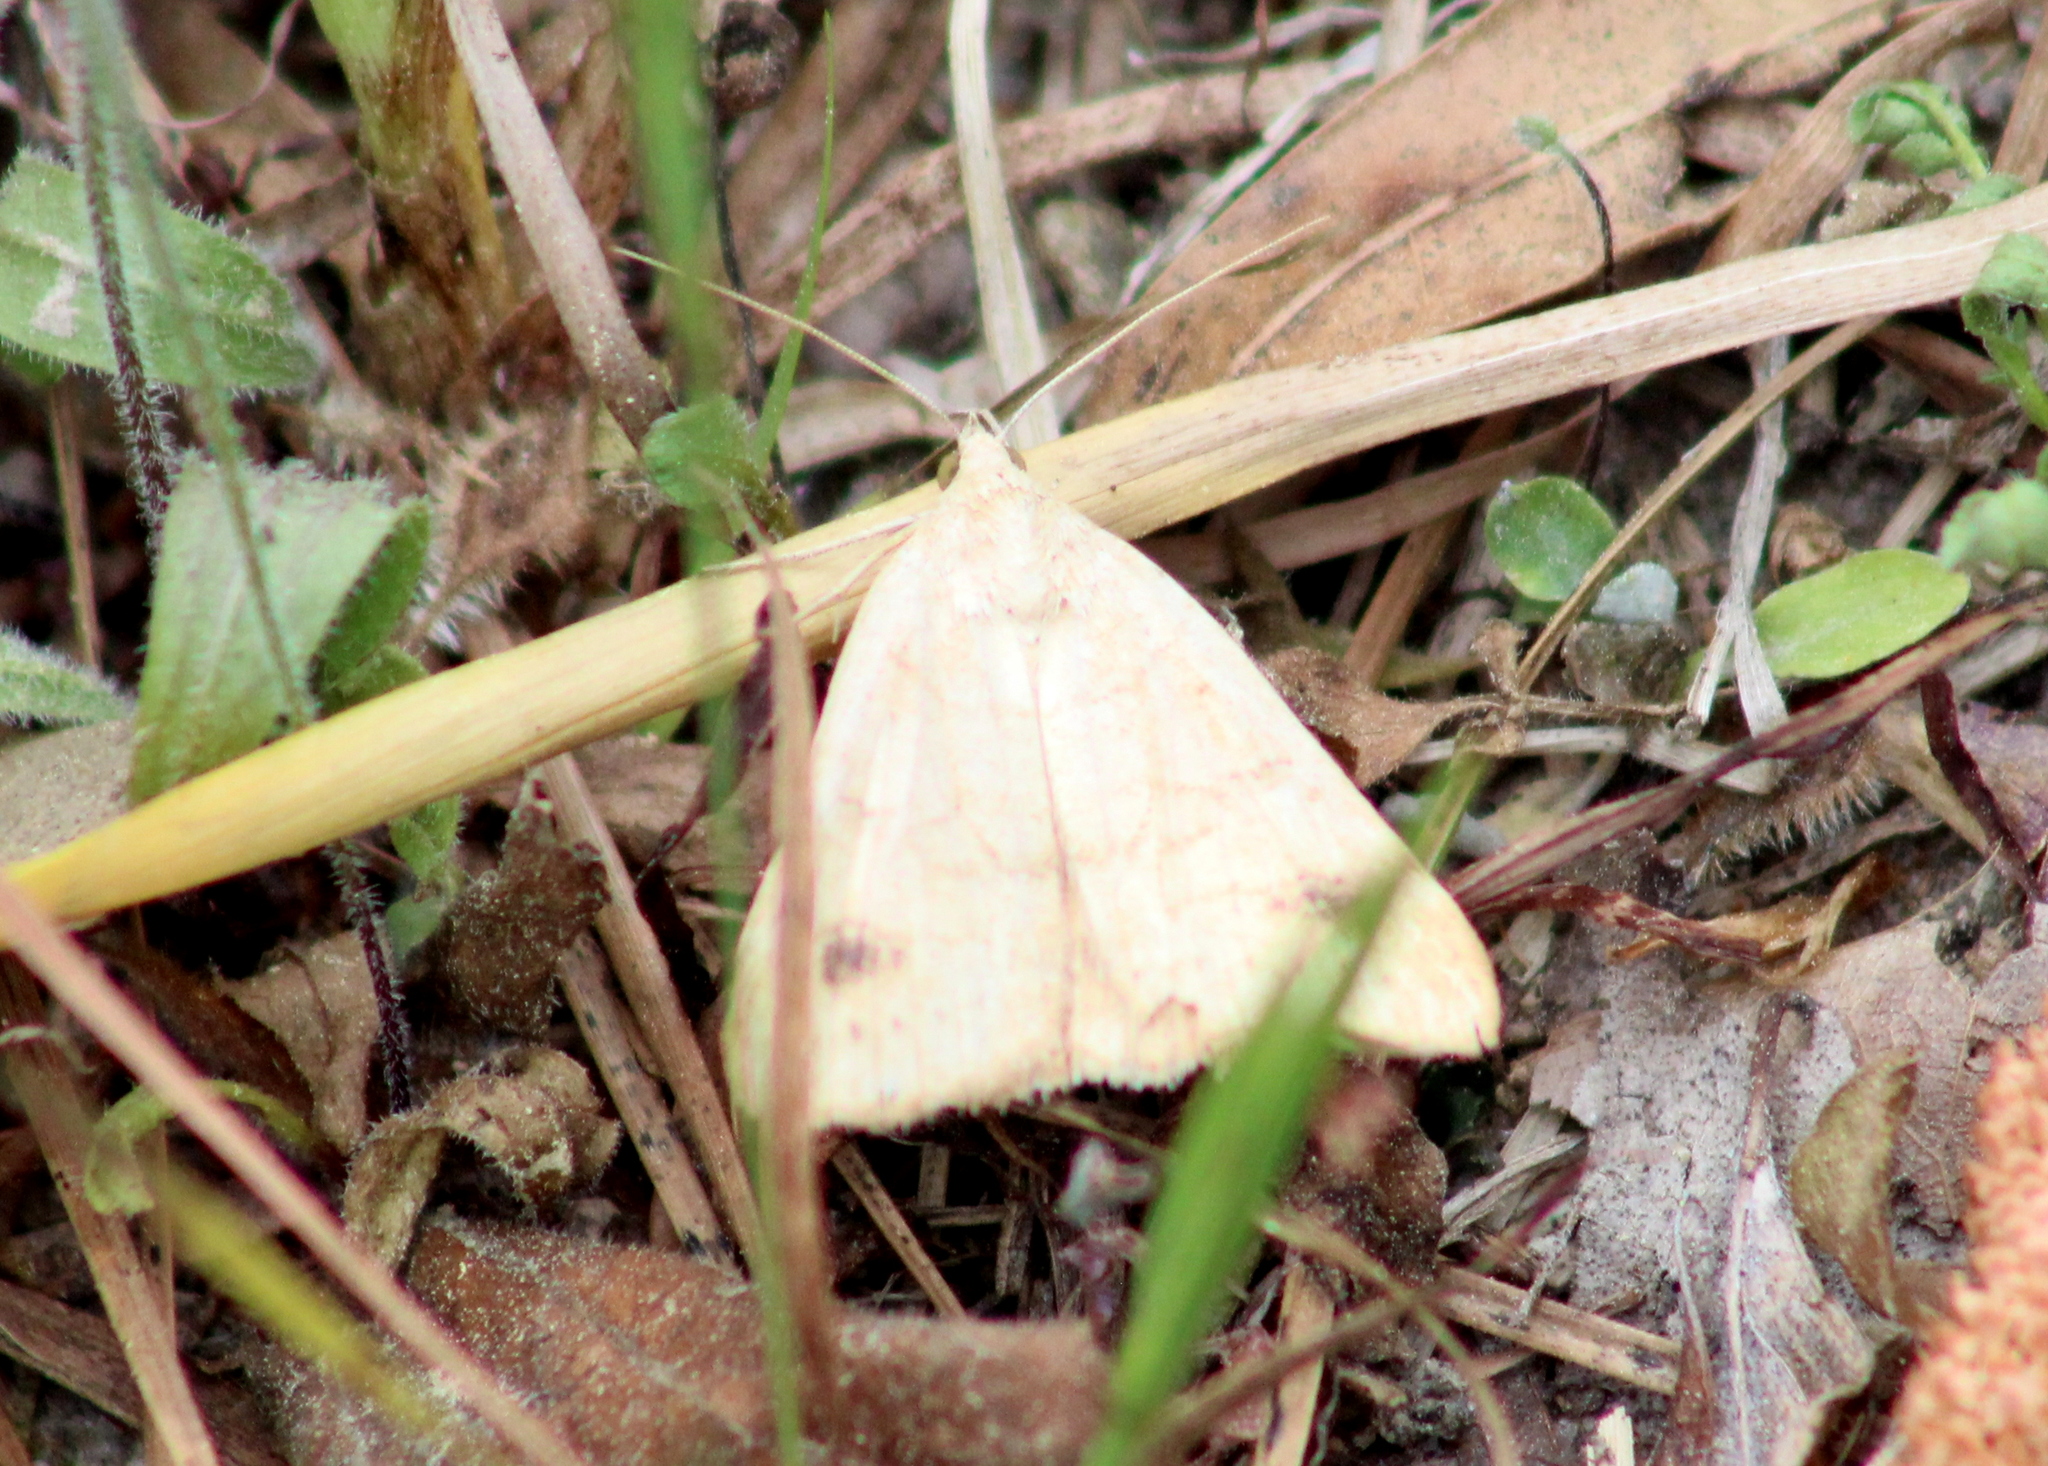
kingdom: Animalia
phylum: Arthropoda
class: Insecta
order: Lepidoptera
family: Erebidae
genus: Caenurgia
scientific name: Caenurgia chloropha
